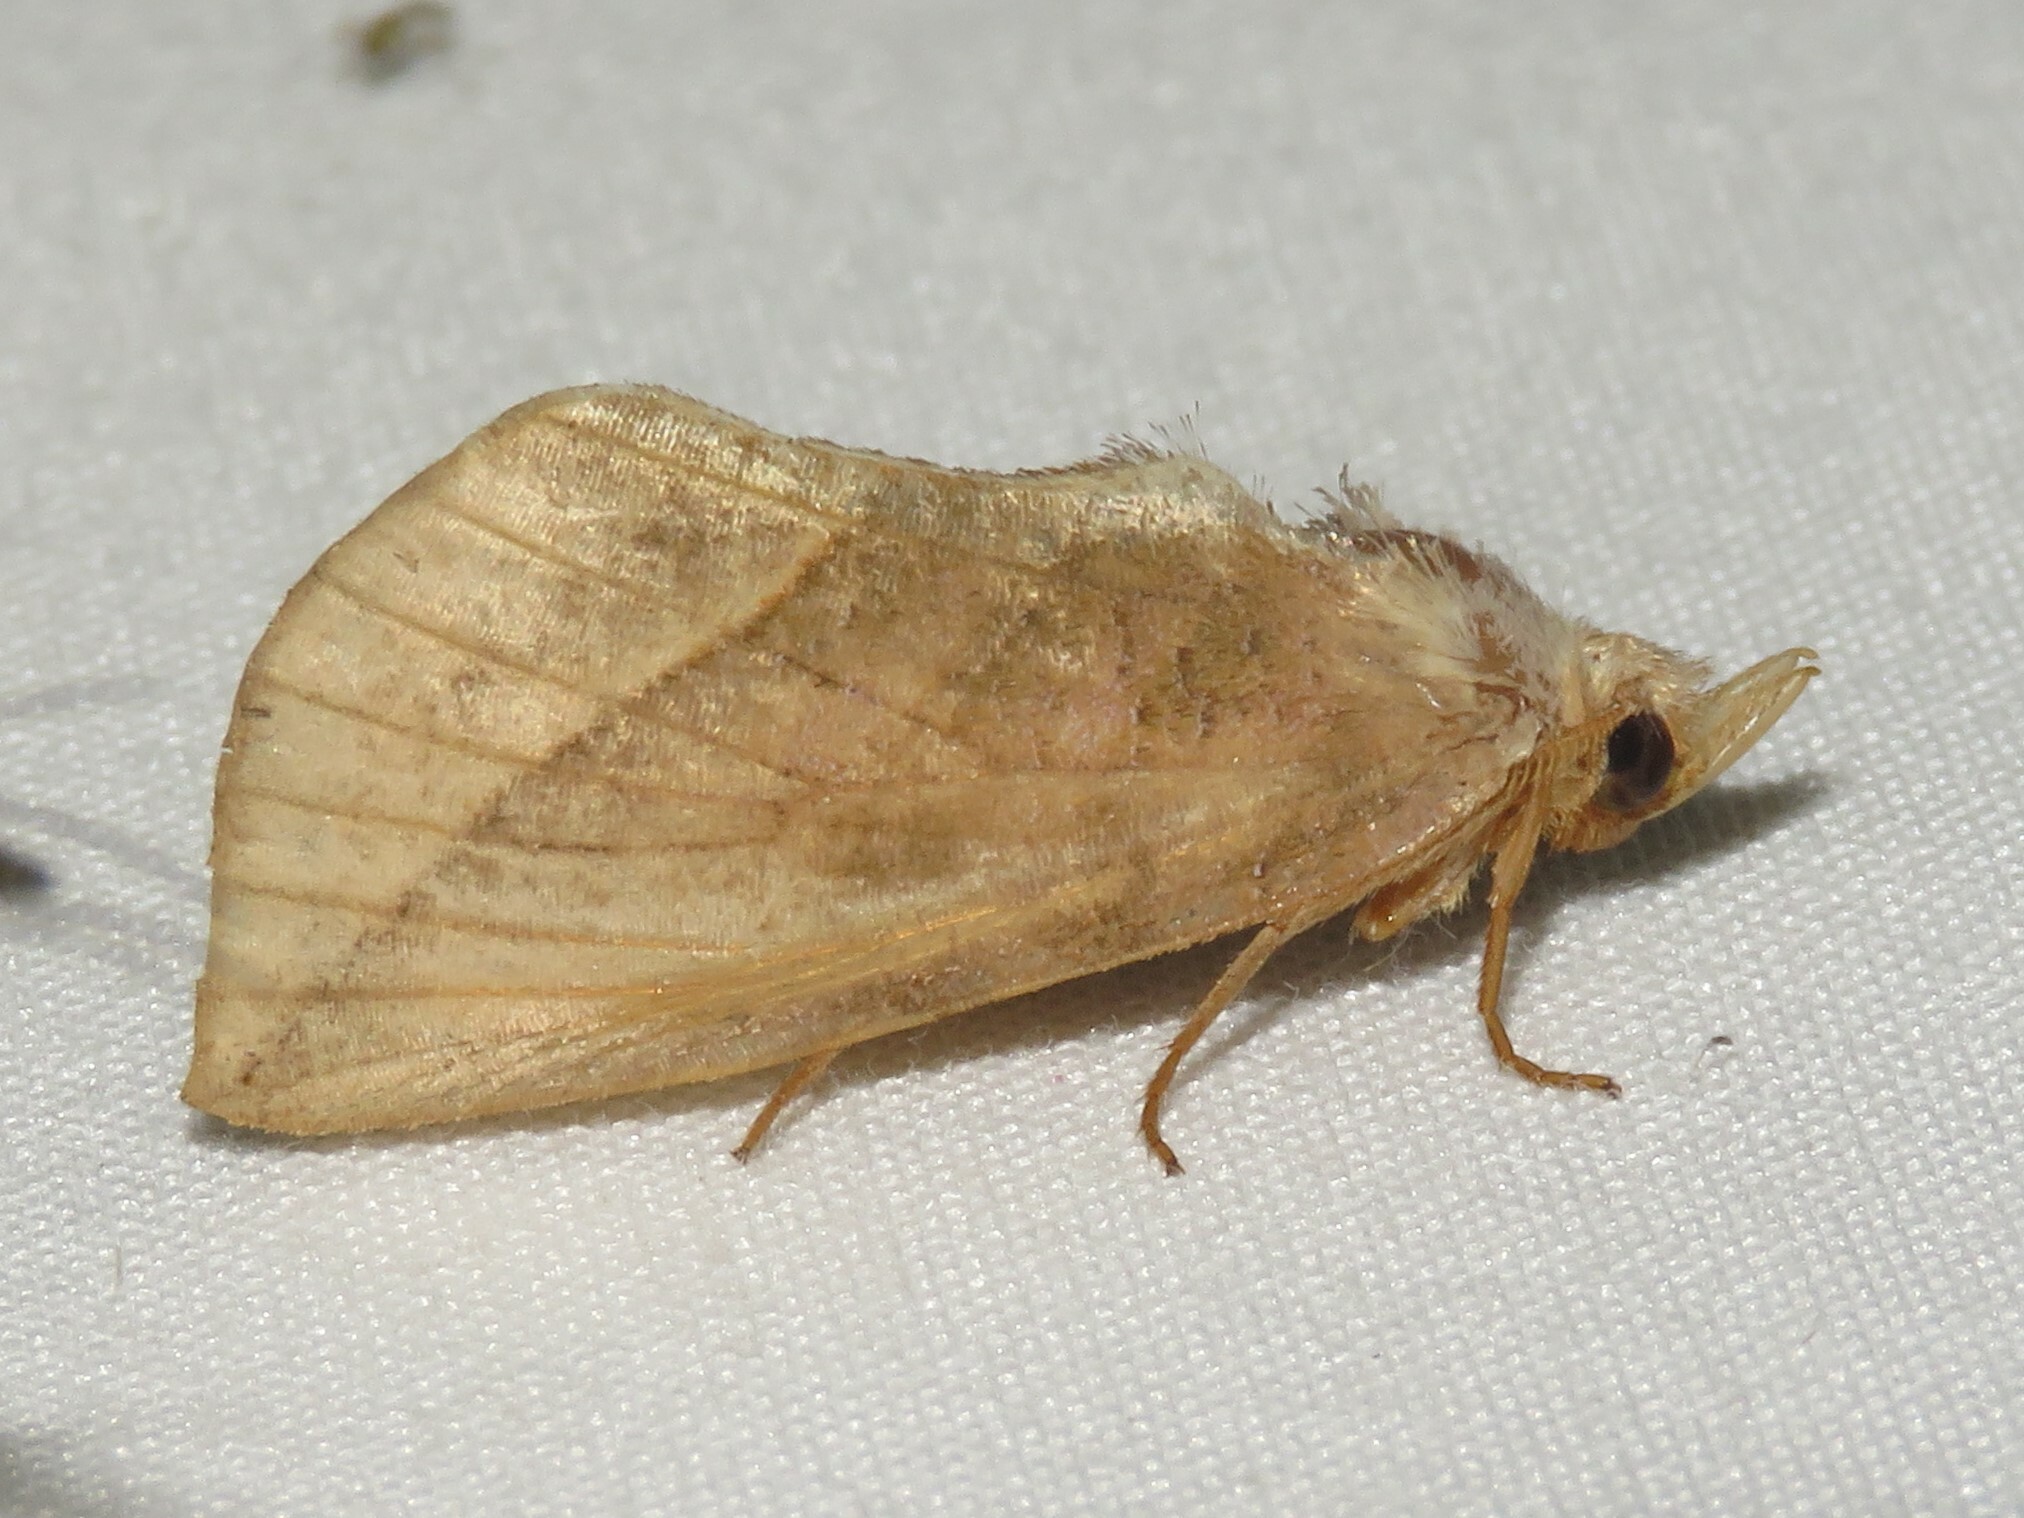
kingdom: Animalia
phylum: Arthropoda
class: Insecta
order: Lepidoptera
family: Erebidae
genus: Calyptra
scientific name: Calyptra canadensis
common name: Canadian owlet
